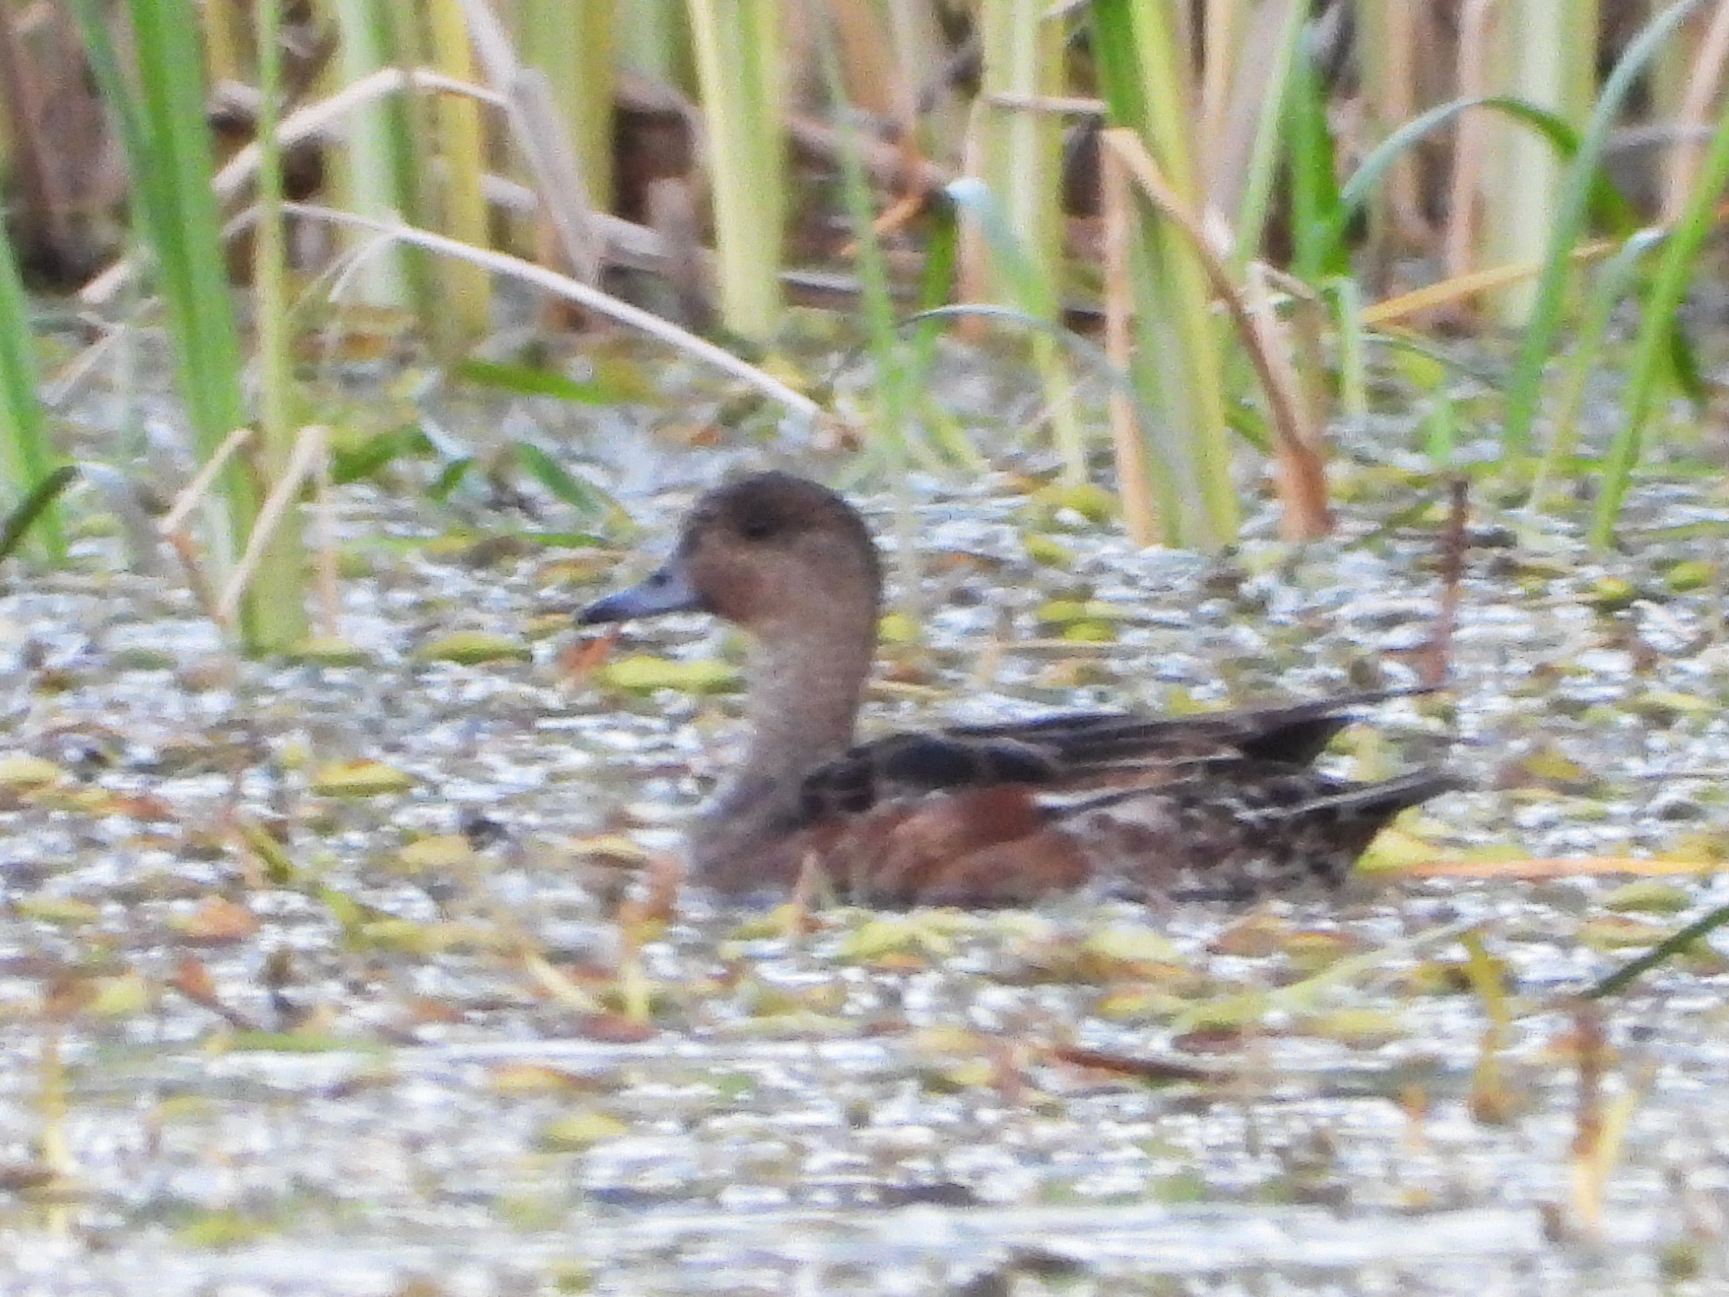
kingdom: Animalia
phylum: Chordata
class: Aves
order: Anseriformes
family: Anatidae
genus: Mareca
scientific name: Mareca penelope
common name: Eurasian wigeon
